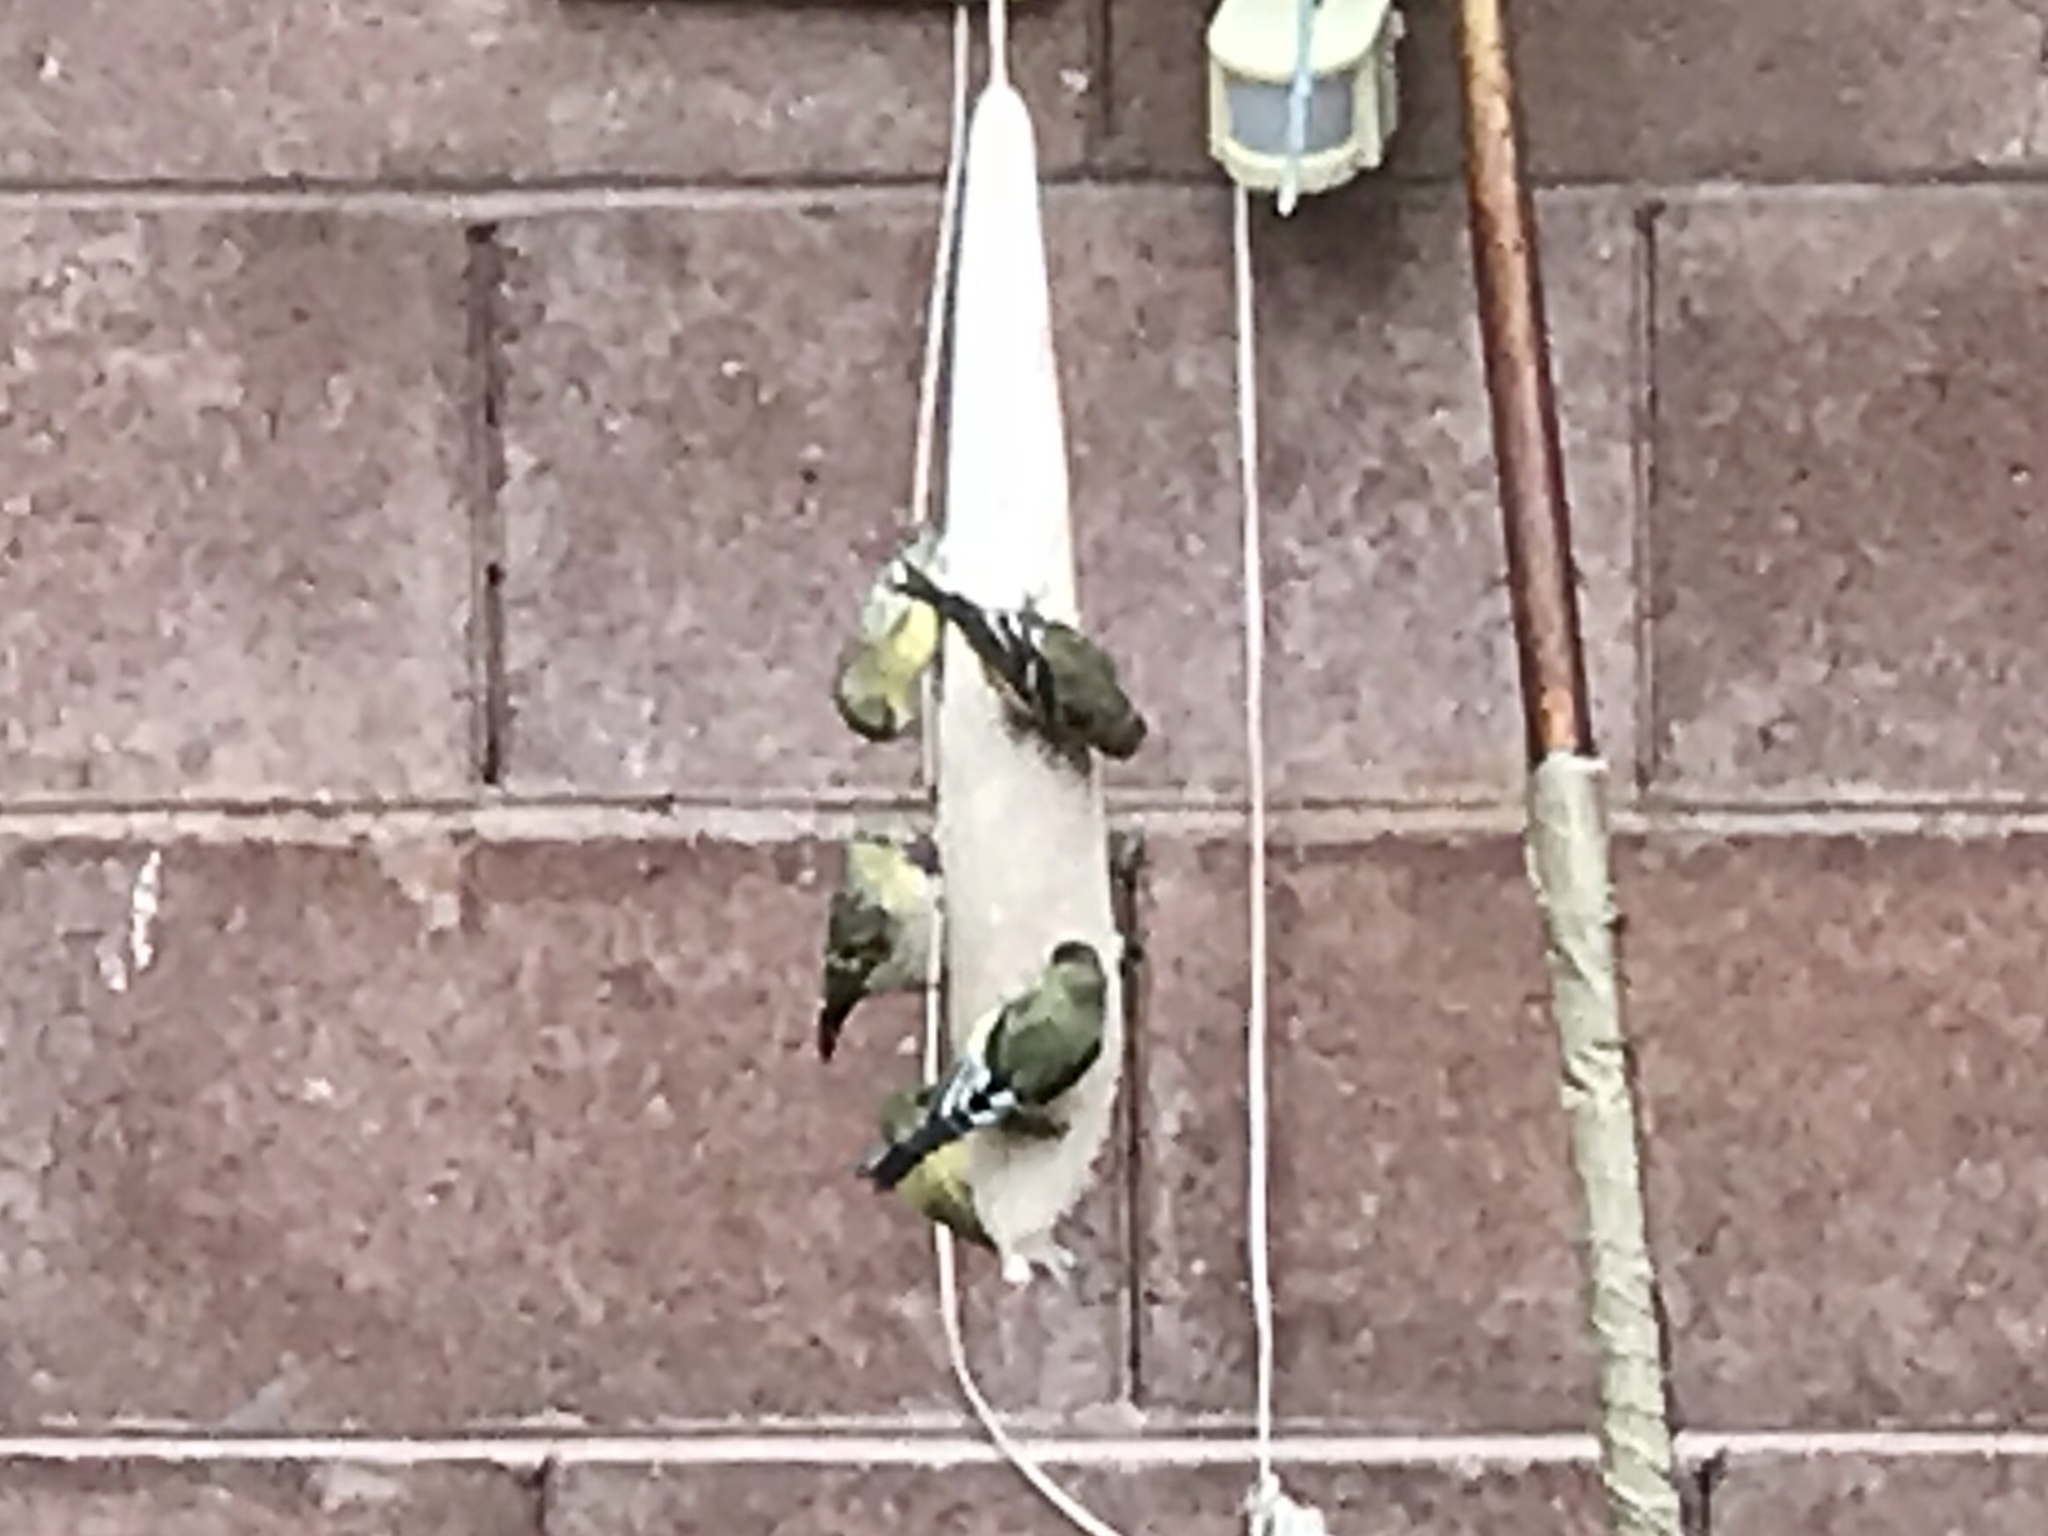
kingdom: Animalia
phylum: Chordata
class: Aves
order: Passeriformes
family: Fringillidae
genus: Spinus
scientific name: Spinus psaltria
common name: Lesser goldfinch
